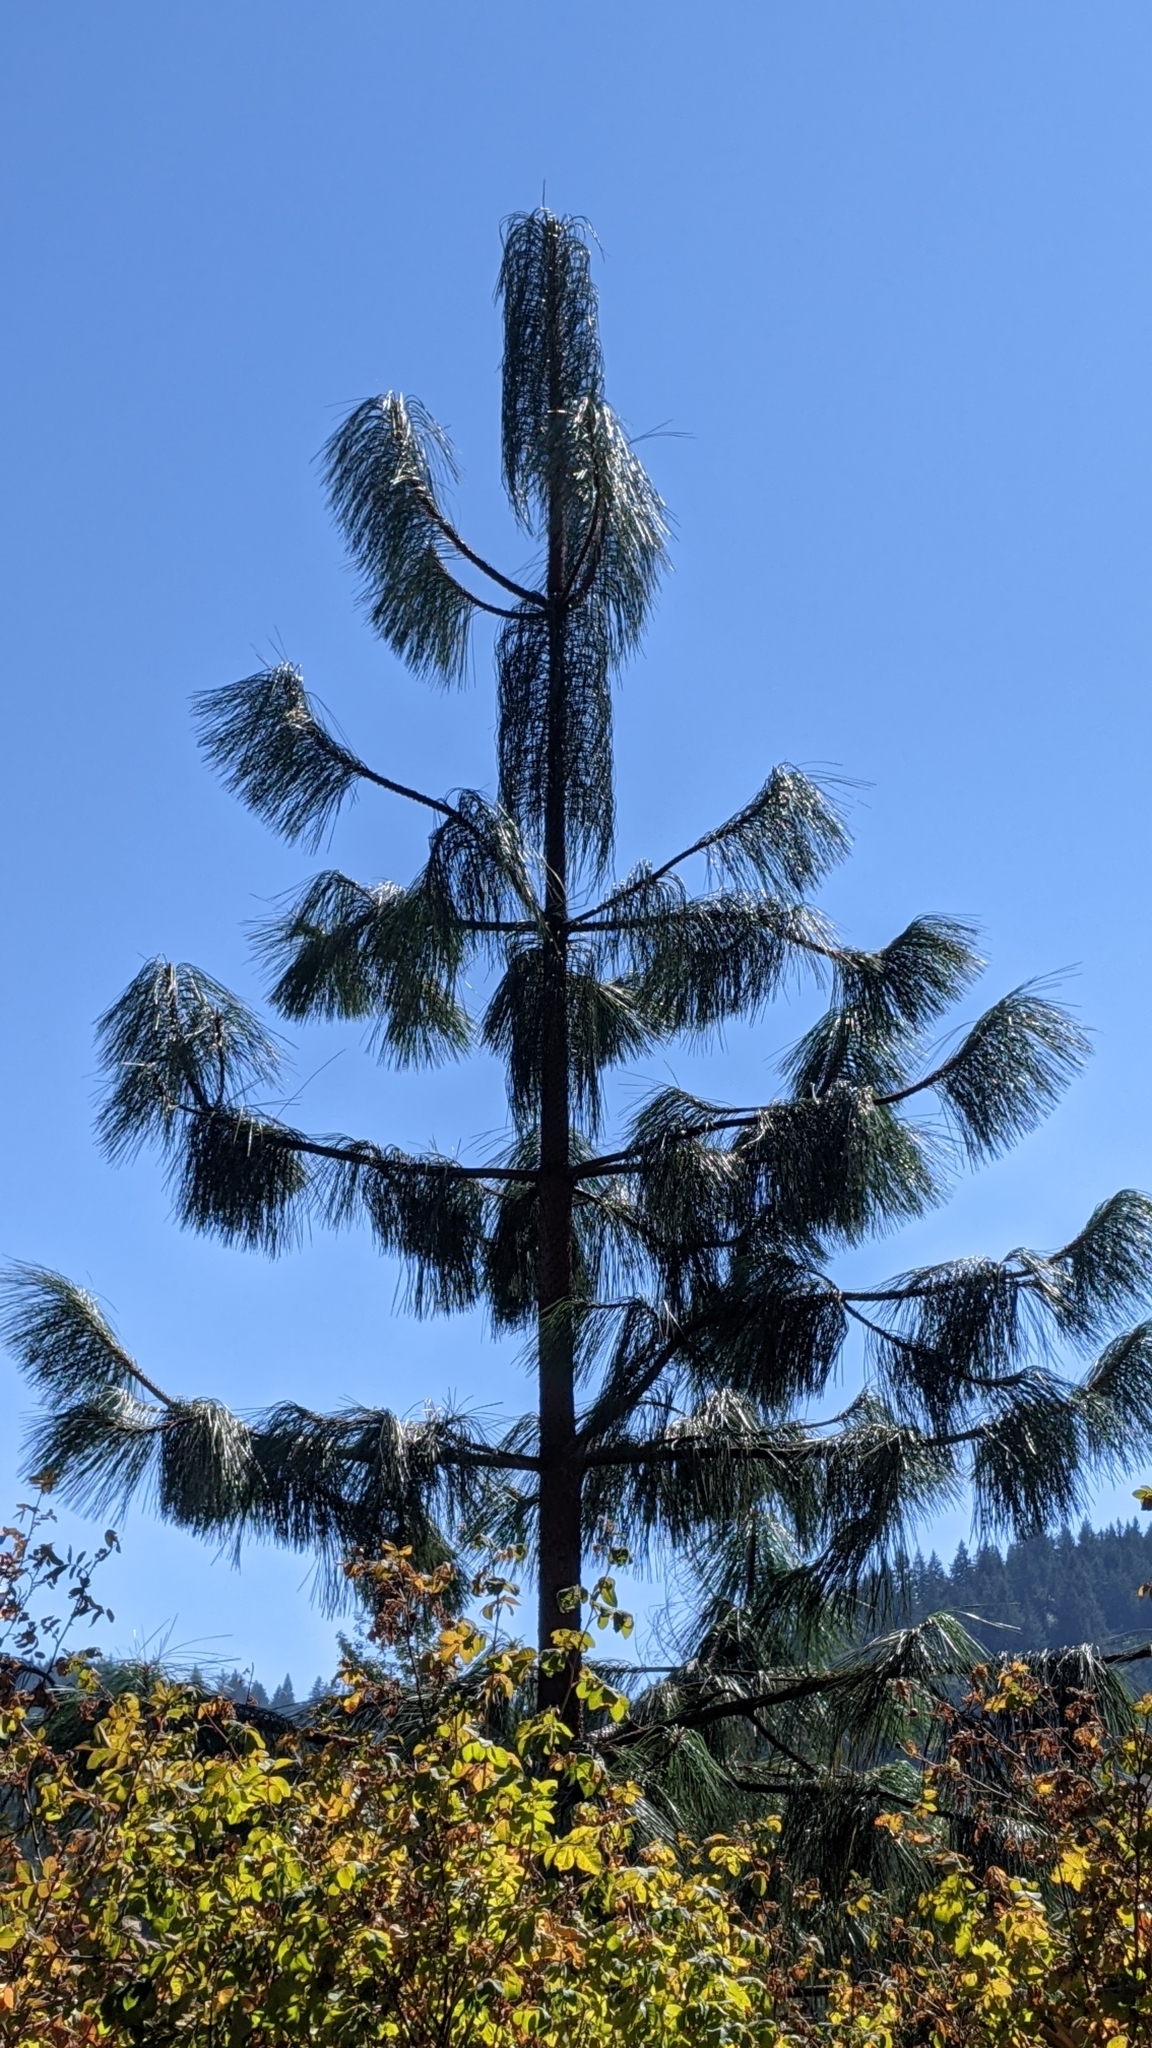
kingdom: Plantae
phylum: Tracheophyta
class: Pinopsida
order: Pinales
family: Pinaceae
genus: Pinus
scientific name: Pinus ponderosa
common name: Western yellow-pine
